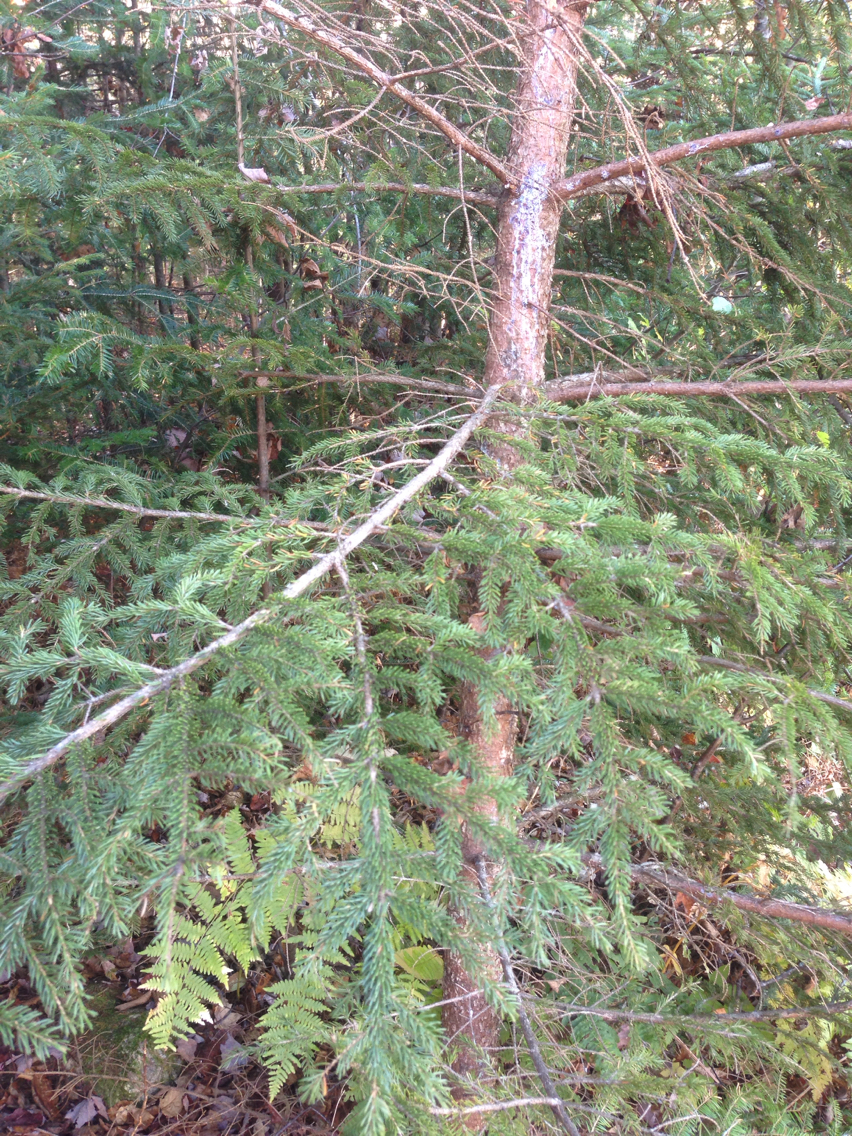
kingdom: Plantae
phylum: Tracheophyta
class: Pinopsida
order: Pinales
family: Pinaceae
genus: Picea
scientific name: Picea rubens
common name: Red spruce
